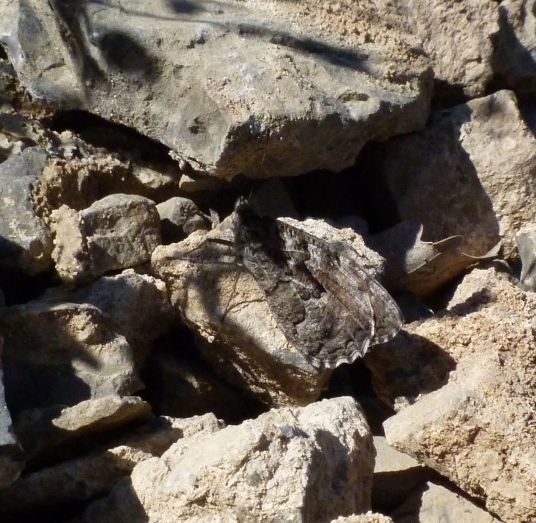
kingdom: Animalia
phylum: Arthropoda
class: Insecta
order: Lepidoptera
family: Nymphalidae
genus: Hipparchia
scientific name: Hipparchia semele
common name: Grayling
